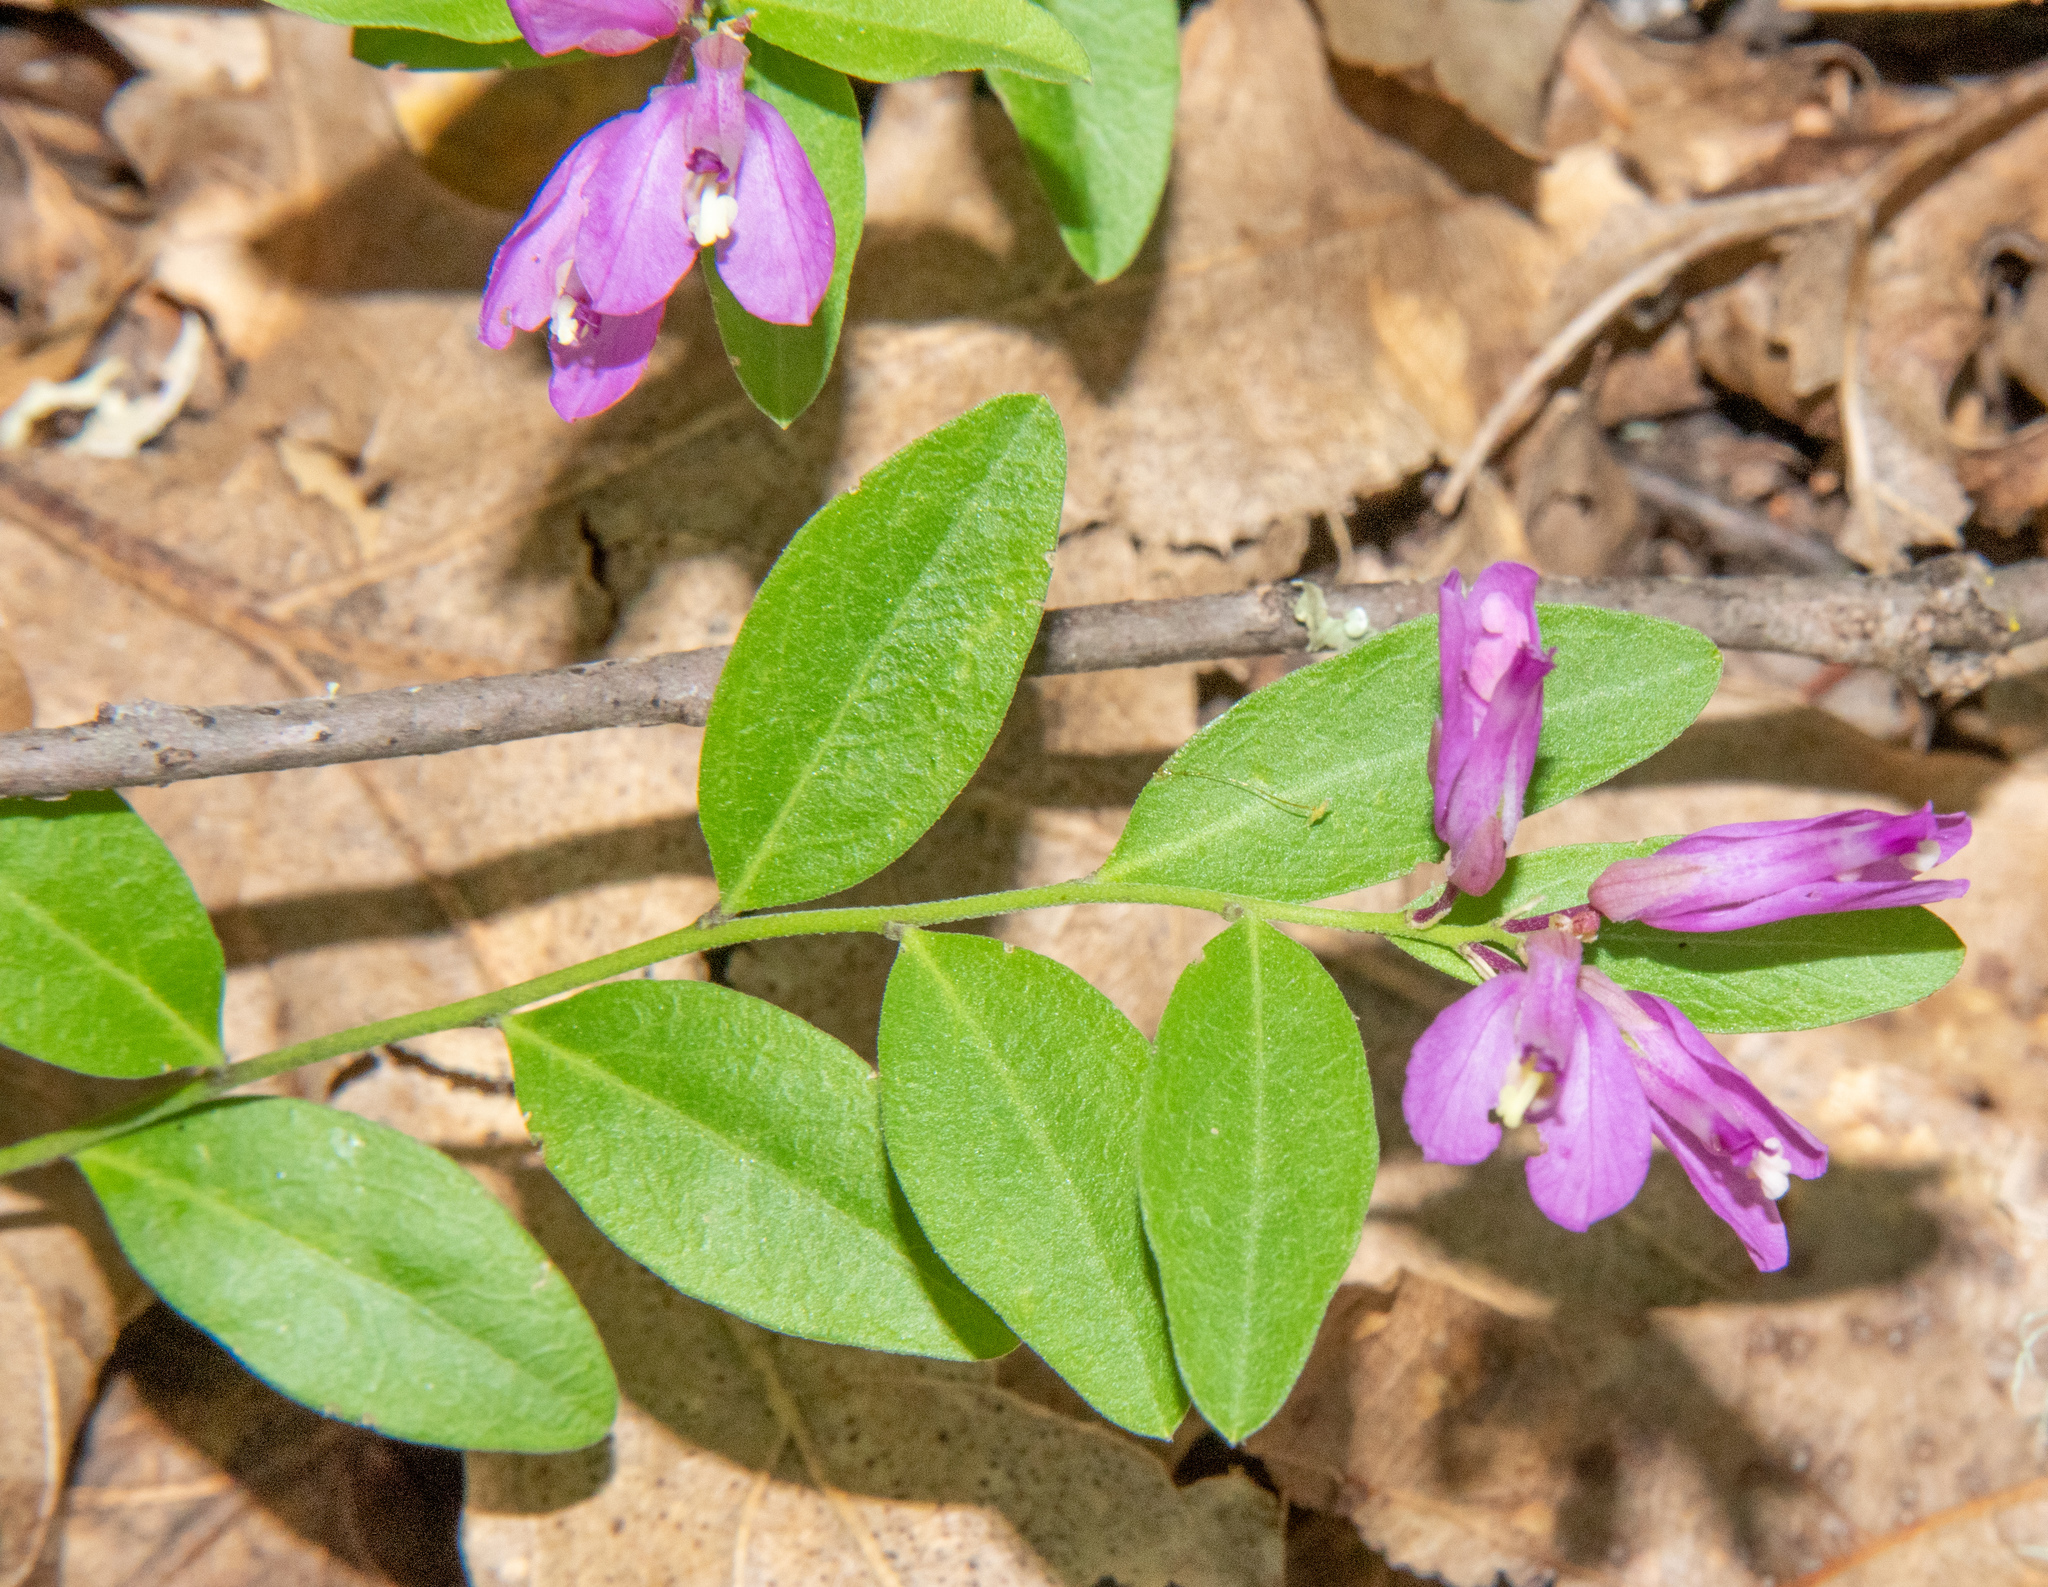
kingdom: Plantae
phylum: Tracheophyta
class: Magnoliopsida
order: Fabales
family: Polygalaceae
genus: Rhinotropis
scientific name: Rhinotropis californica
